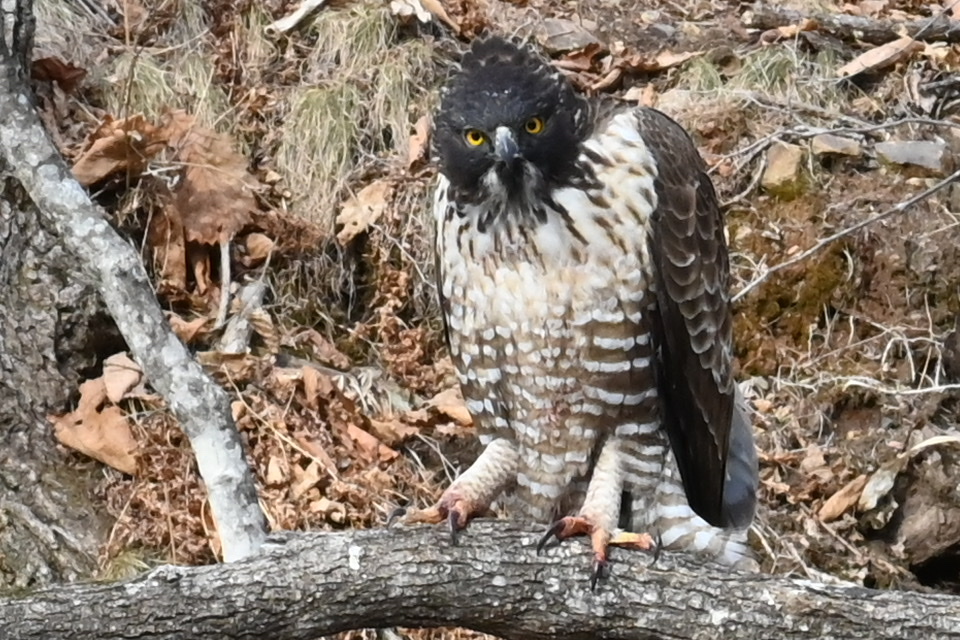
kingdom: Animalia
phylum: Chordata
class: Aves
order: Accipitriformes
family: Accipitridae
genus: Nisaetus
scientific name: Nisaetus nipalensis
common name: Mountain hawk-eagle
